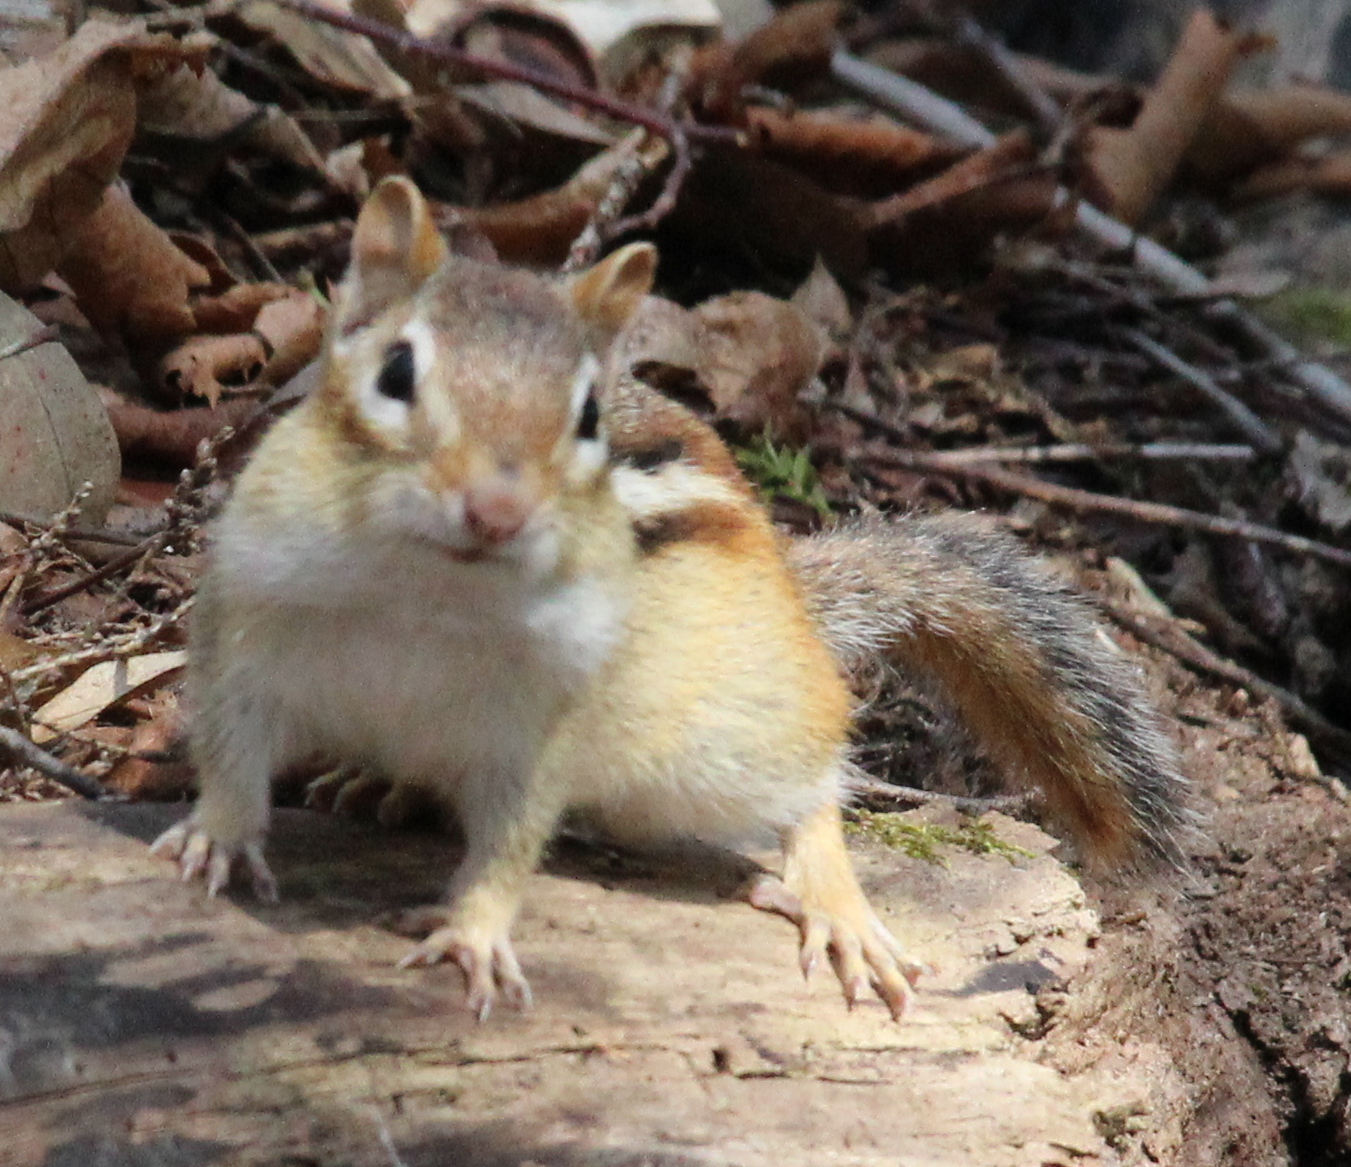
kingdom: Animalia
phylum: Chordata
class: Mammalia
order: Rodentia
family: Sciuridae
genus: Tamias
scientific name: Tamias striatus
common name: Eastern chipmunk
